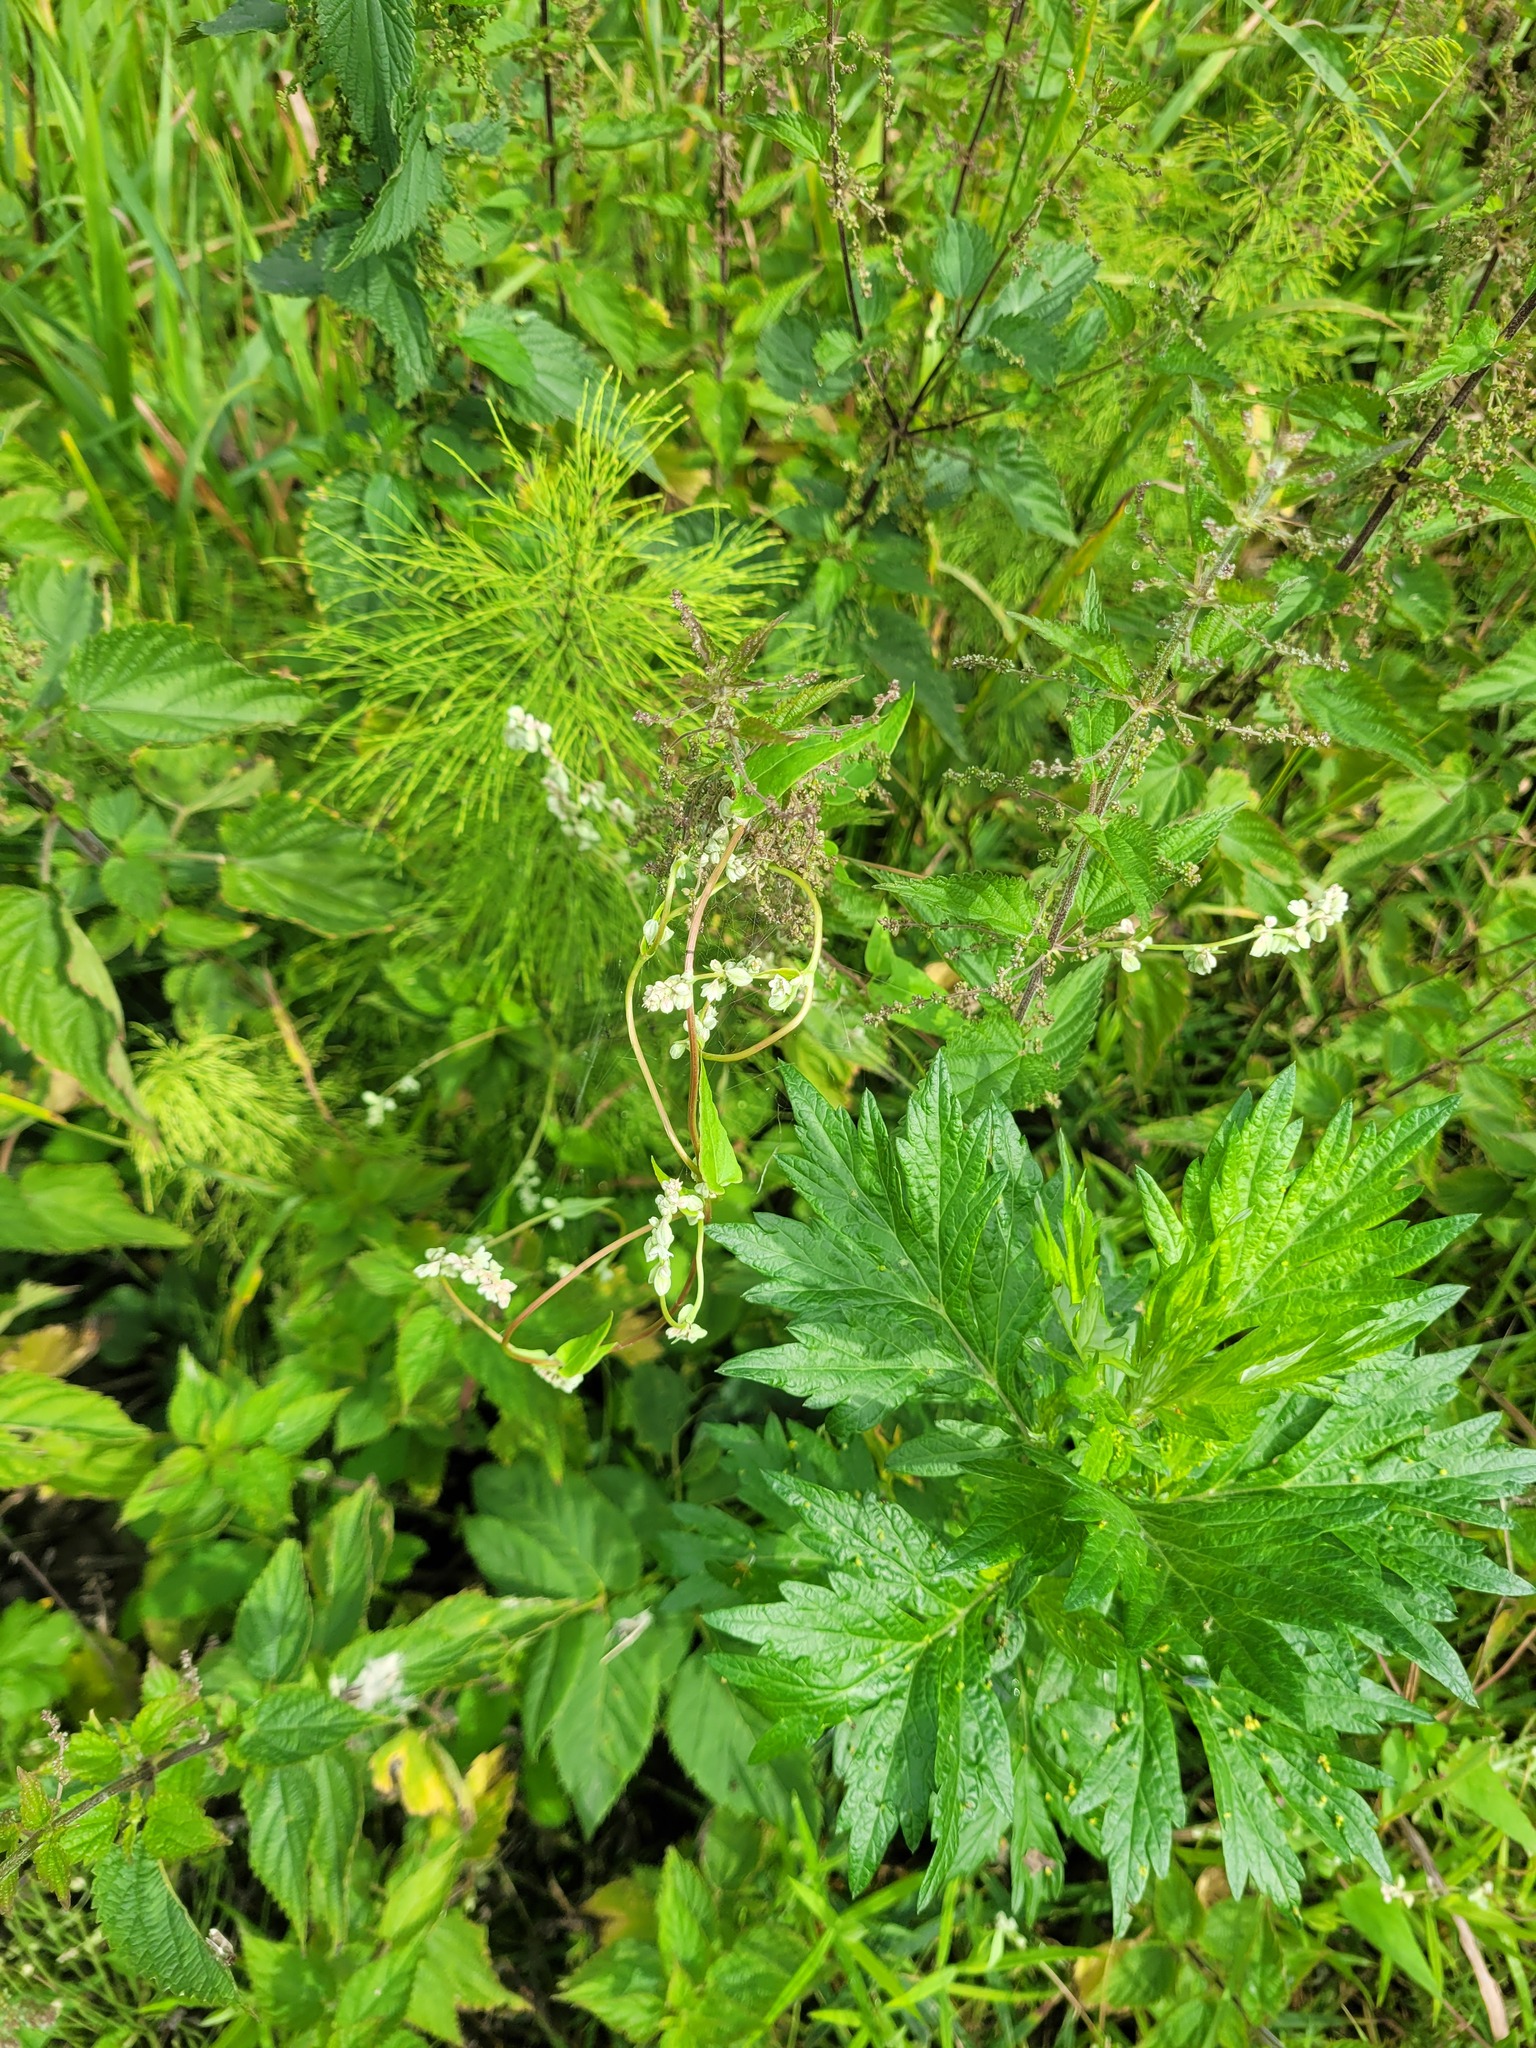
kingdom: Plantae
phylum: Tracheophyta
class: Magnoliopsida
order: Caryophyllales
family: Polygonaceae
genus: Fallopia
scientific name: Fallopia convolvulus
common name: Black bindweed
